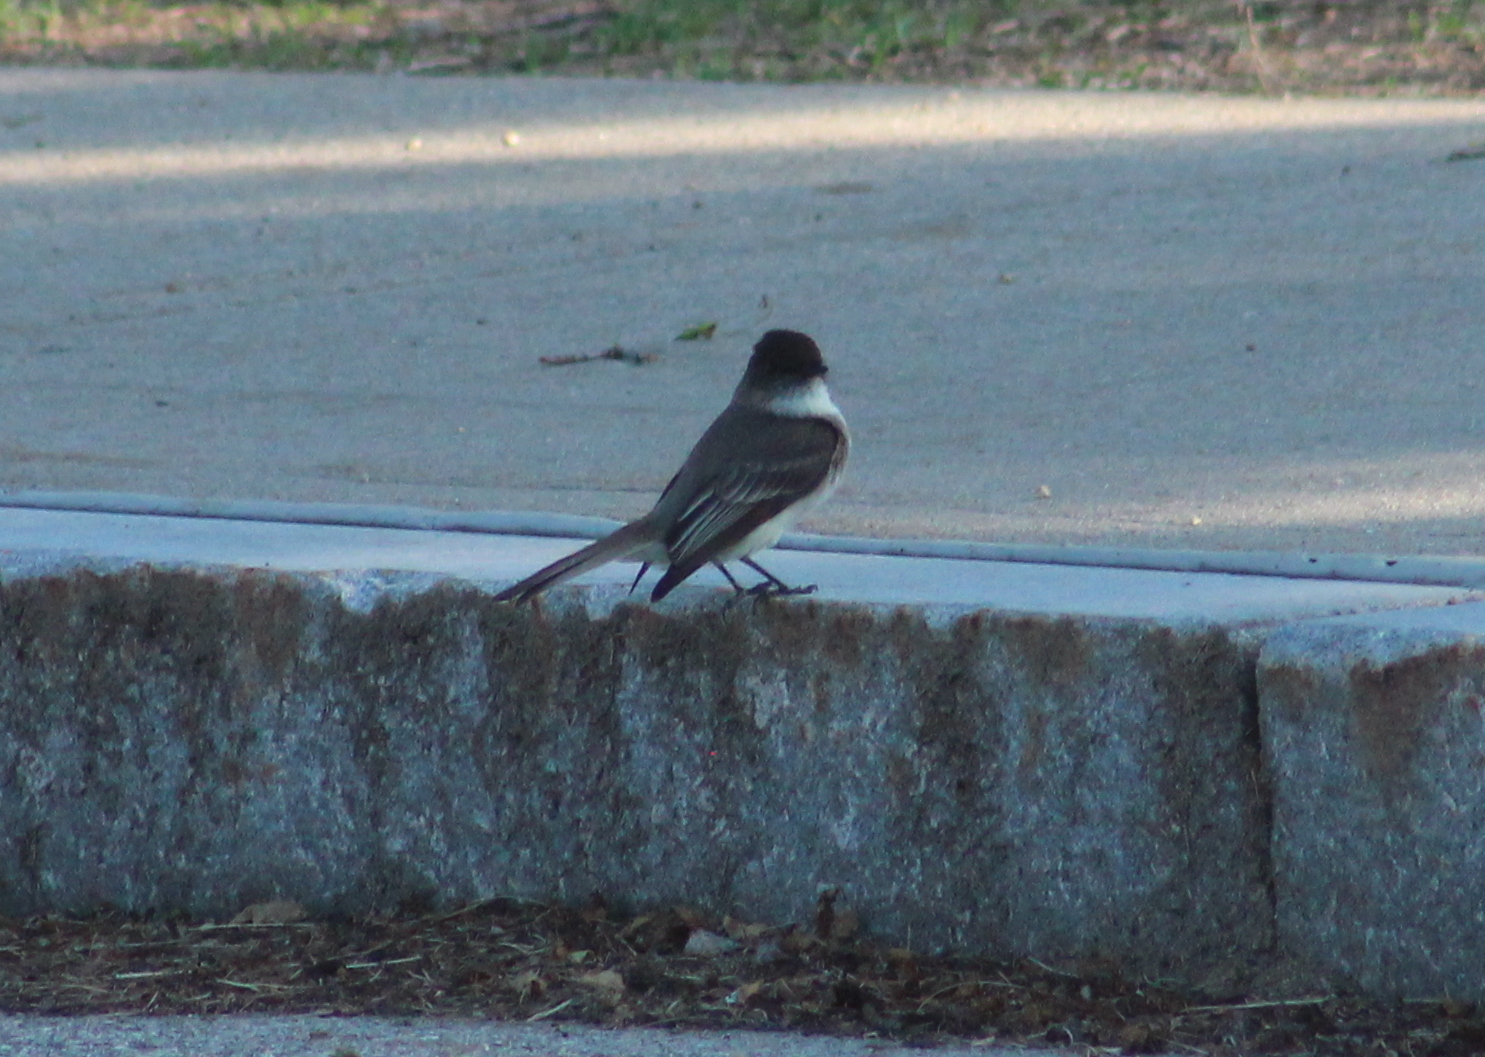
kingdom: Animalia
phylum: Chordata
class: Aves
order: Passeriformes
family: Tyrannidae
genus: Sayornis
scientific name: Sayornis phoebe
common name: Eastern phoebe
